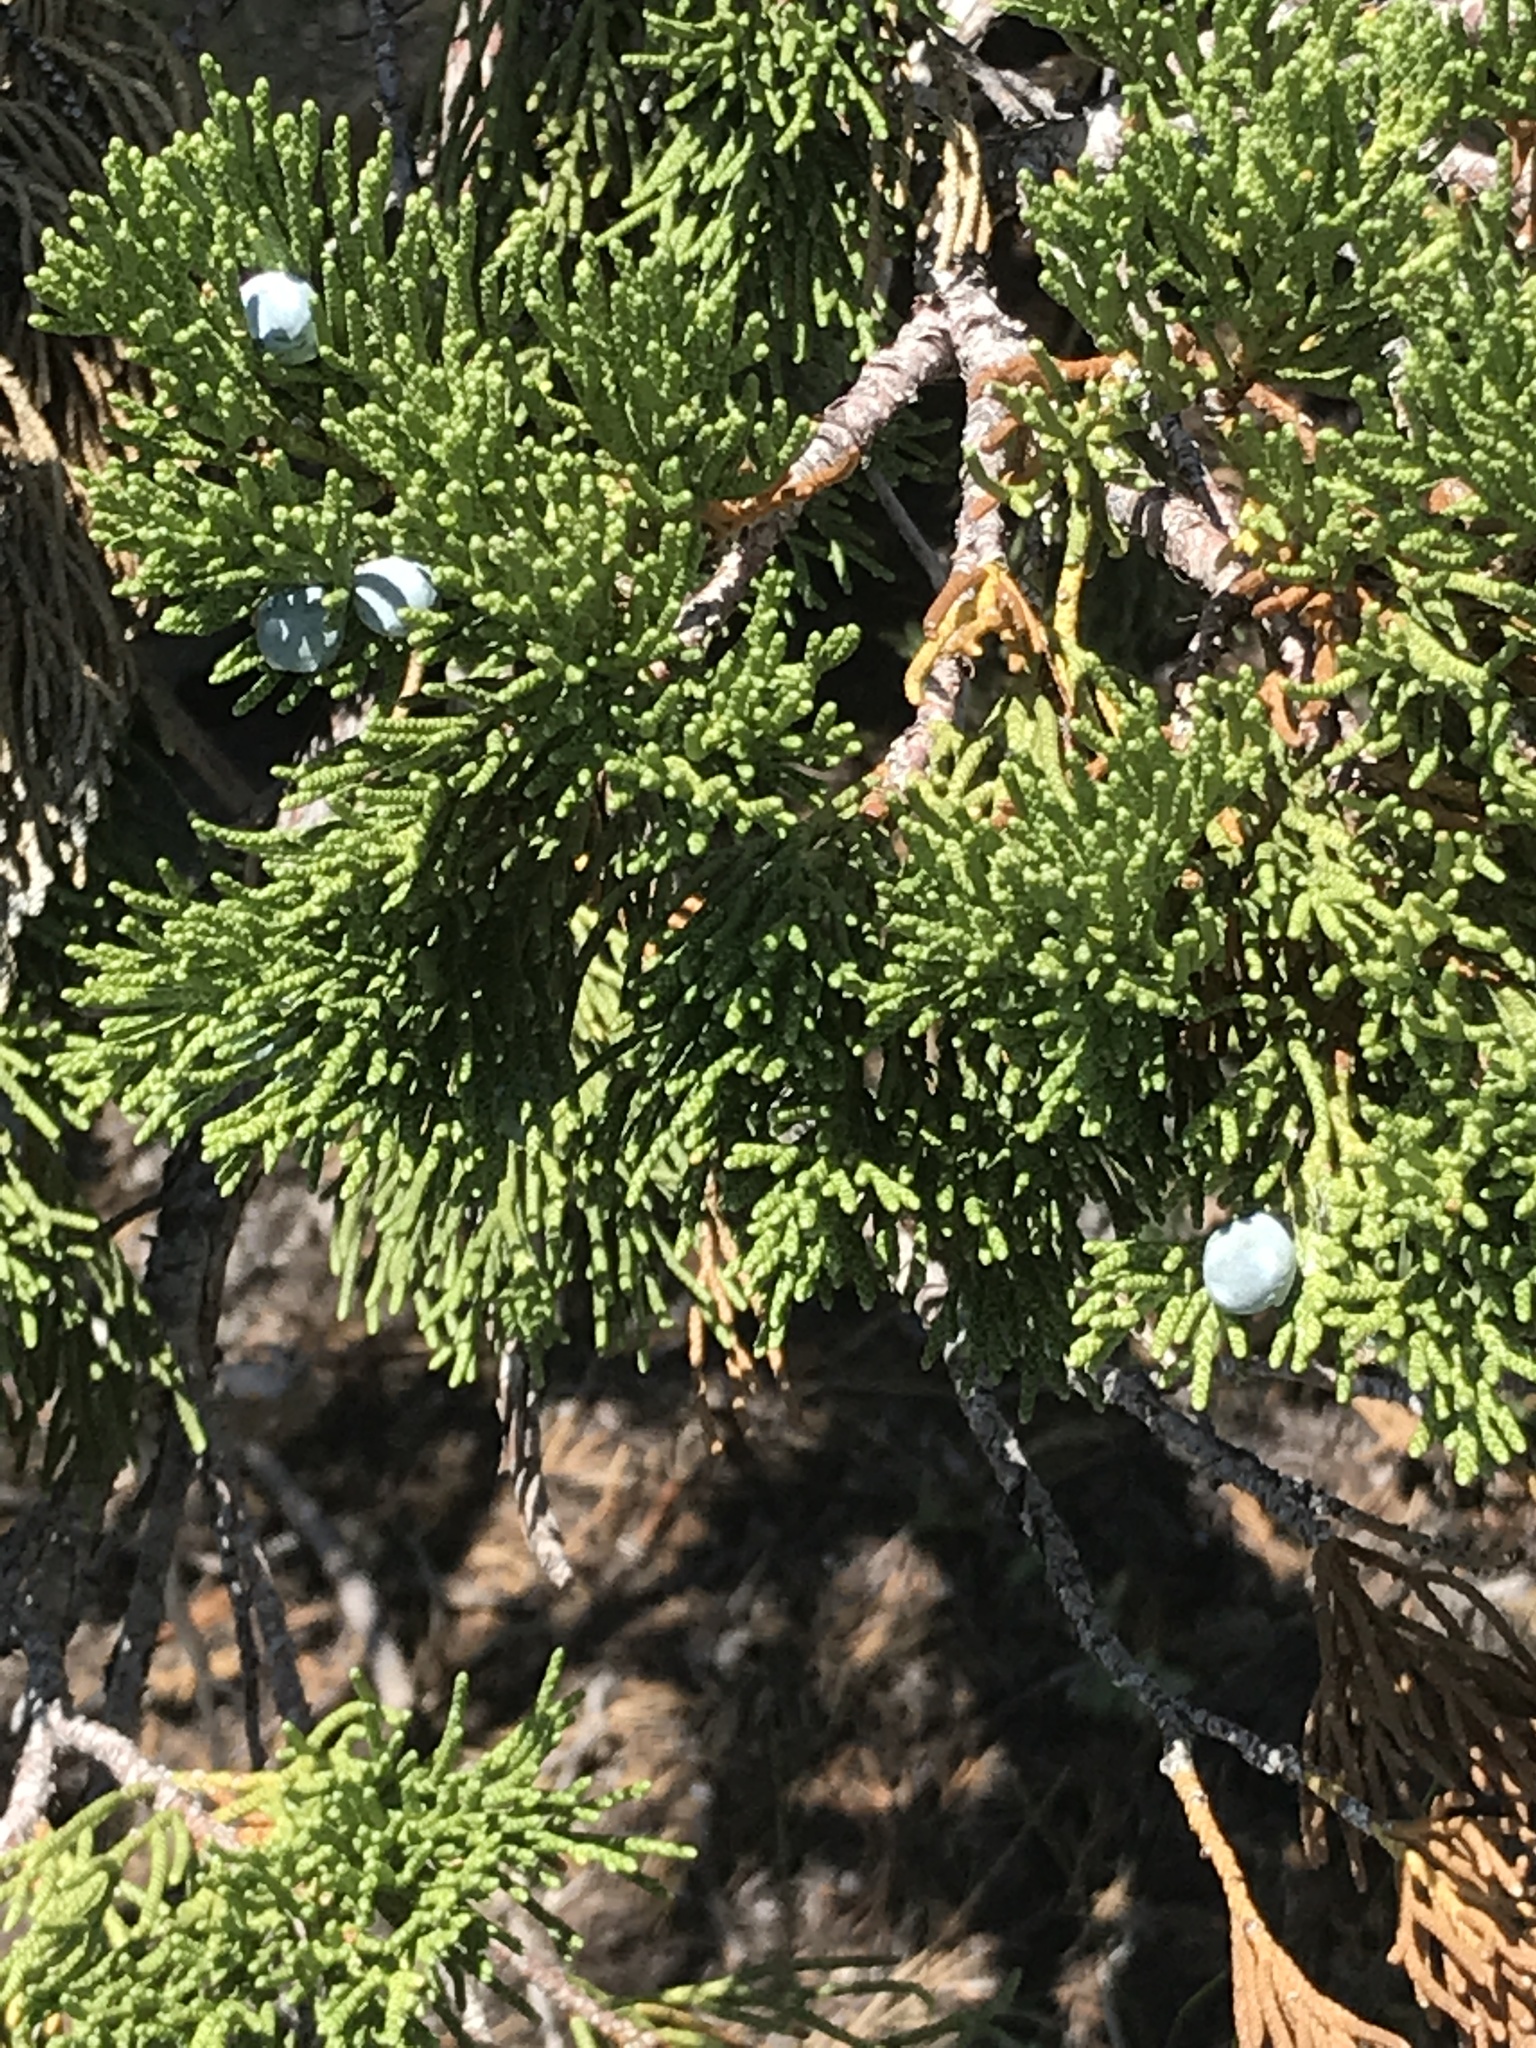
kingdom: Plantae
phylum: Tracheophyta
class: Pinopsida
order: Pinales
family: Cupressaceae
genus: Juniperus
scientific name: Juniperus occidentalis
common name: Western juniper
